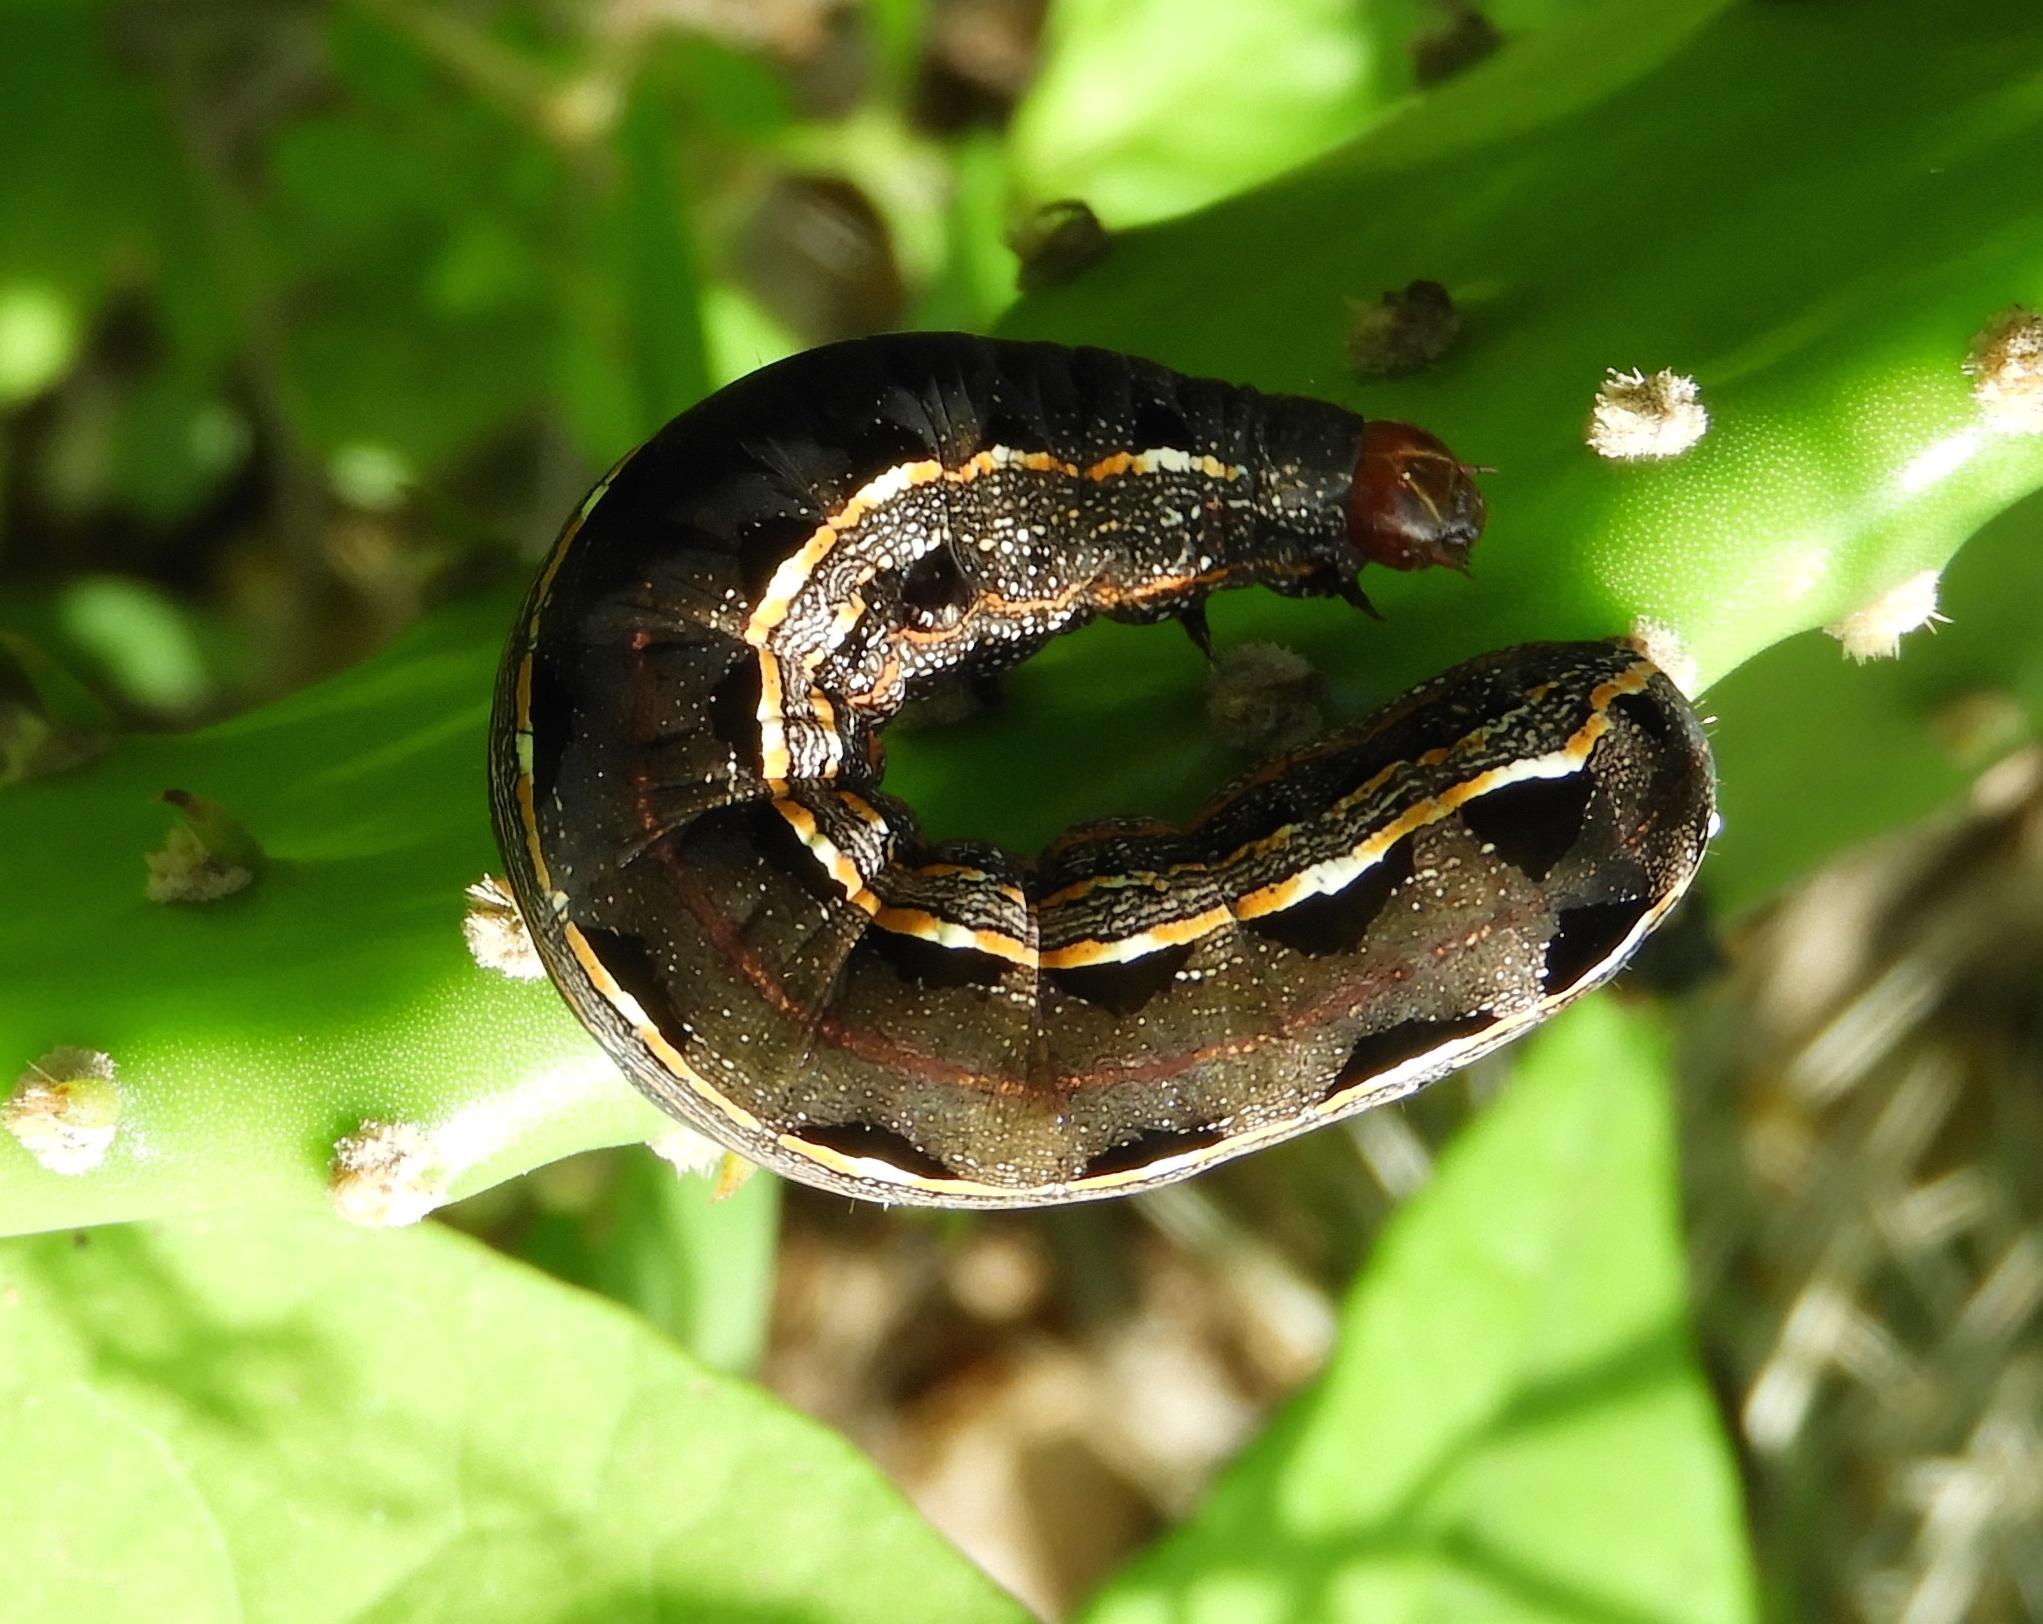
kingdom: Animalia
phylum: Arthropoda
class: Insecta
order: Lepidoptera
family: Noctuidae
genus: Spodoptera
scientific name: Spodoptera ornithogalli
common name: Yellow-striped armyworm
